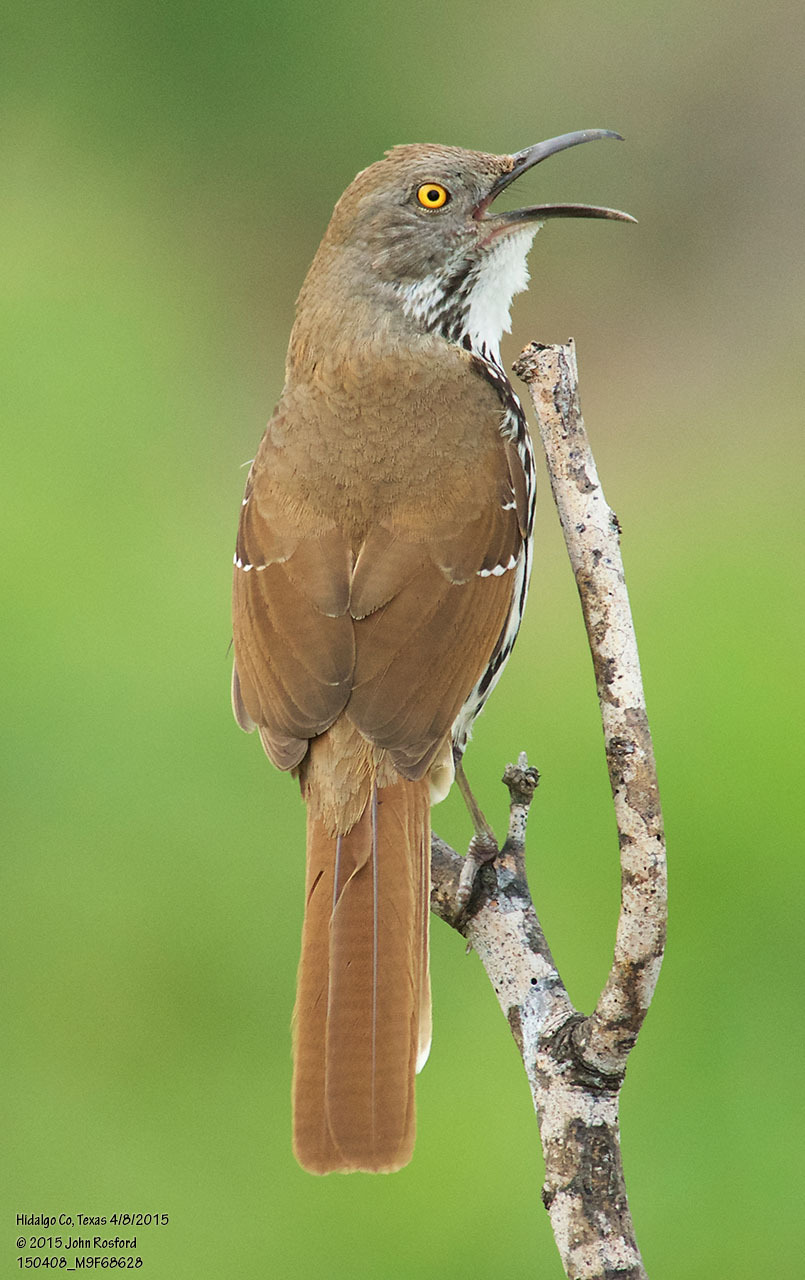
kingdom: Animalia
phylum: Chordata
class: Aves
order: Passeriformes
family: Mimidae
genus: Toxostoma
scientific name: Toxostoma longirostre
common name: Long-billed thrasher
